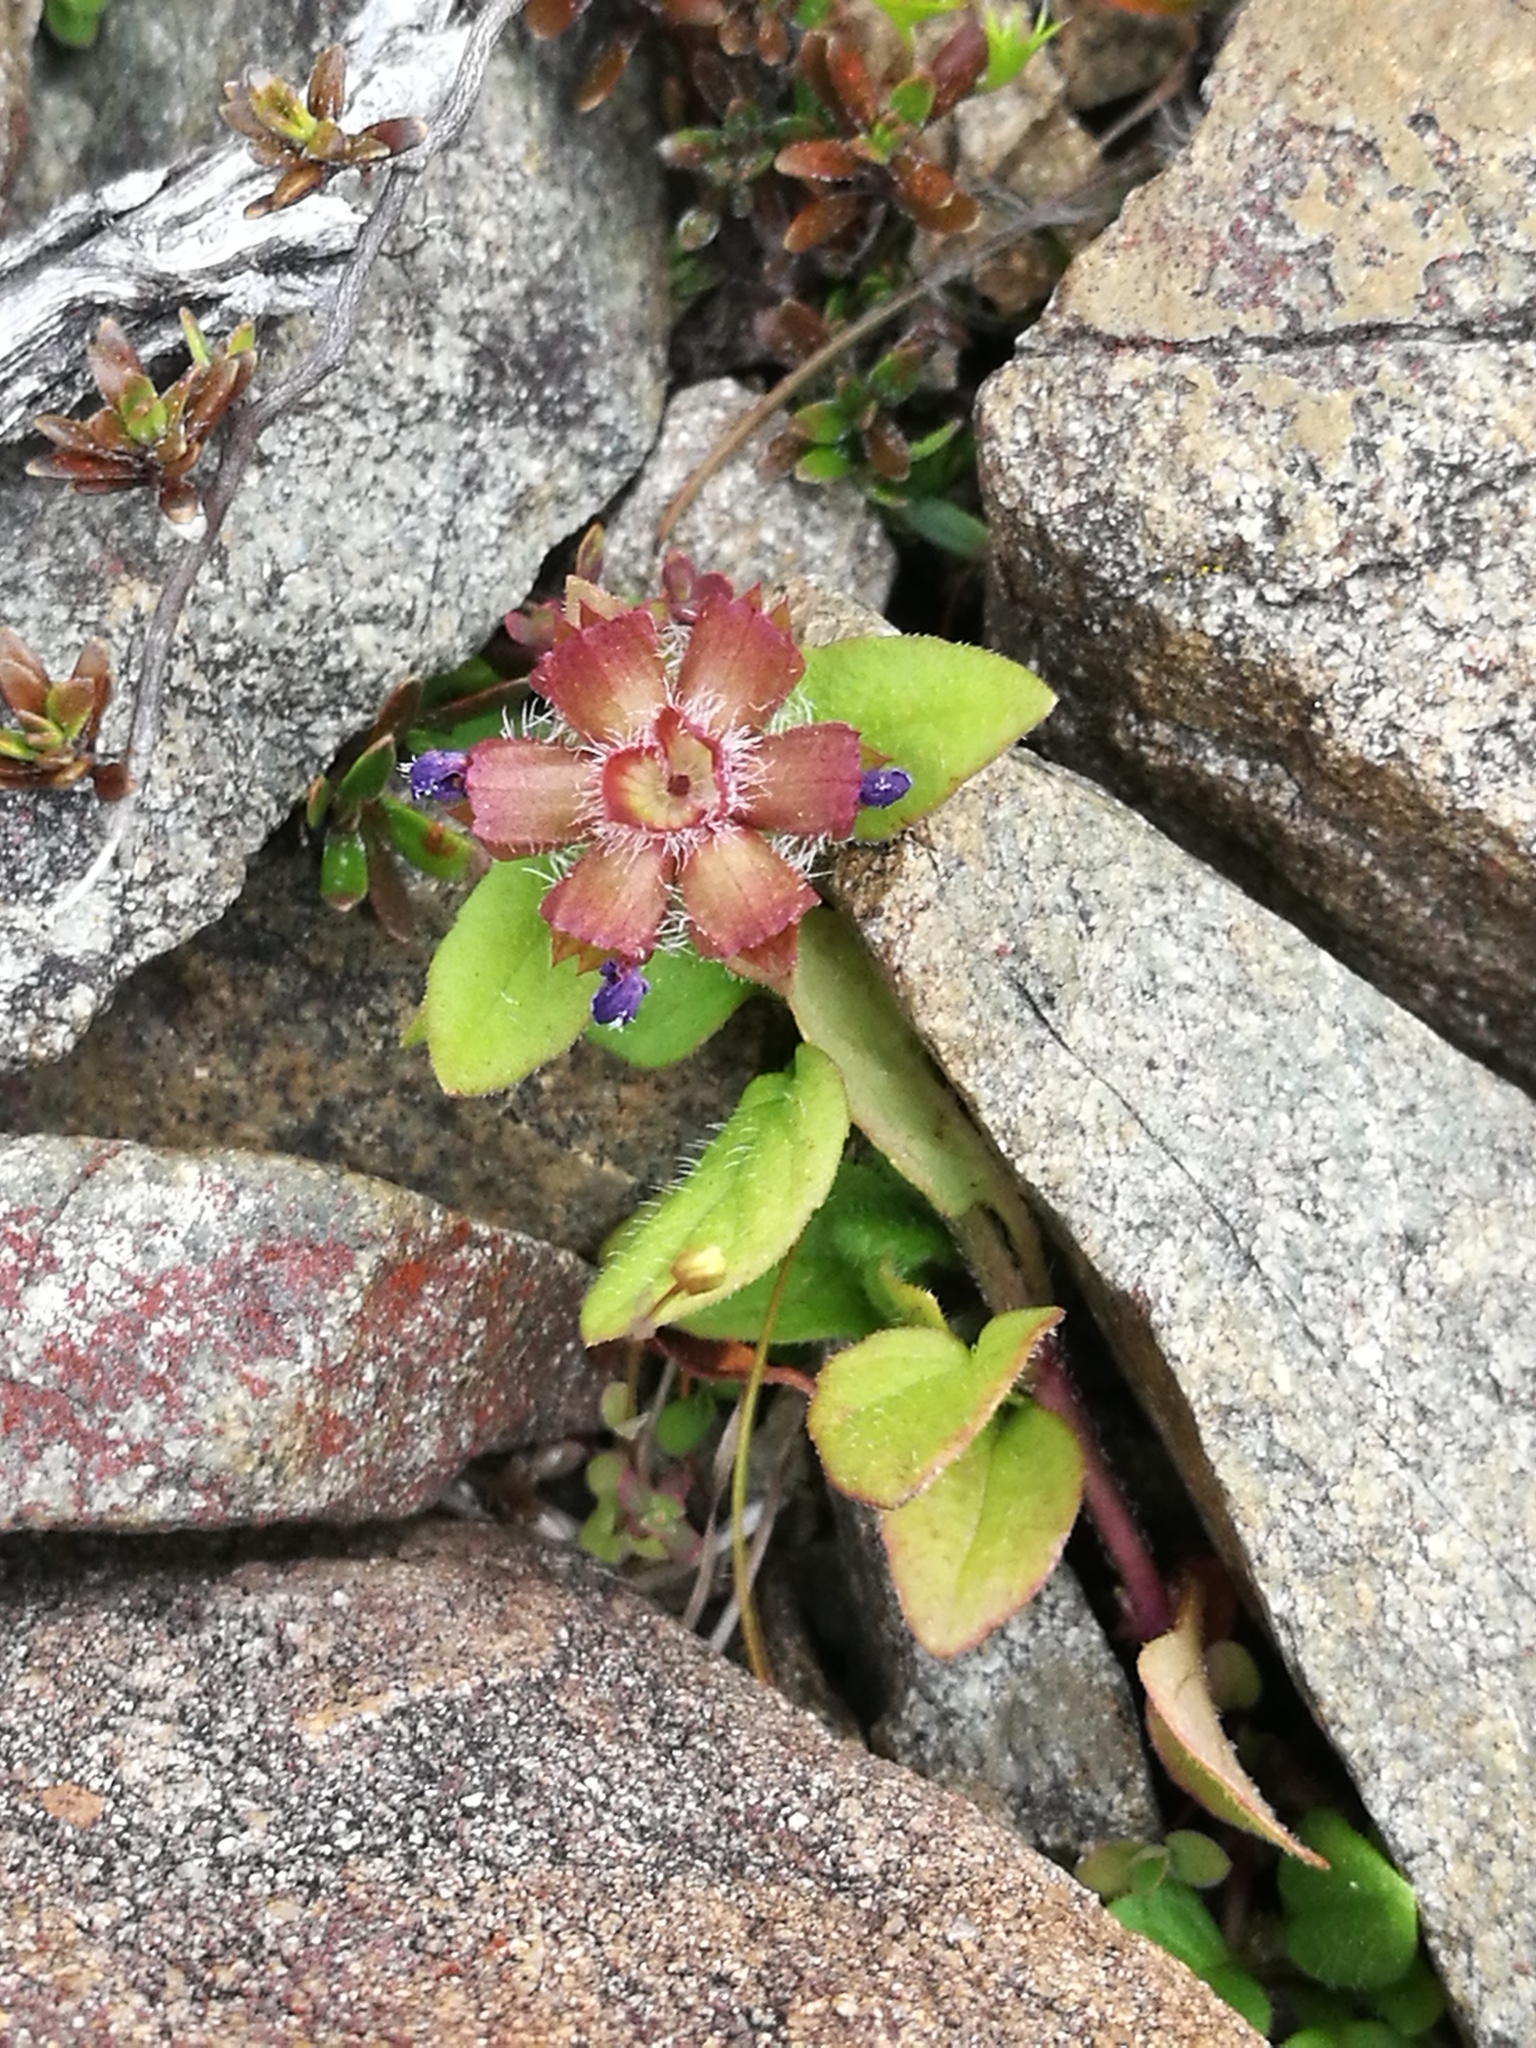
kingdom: Plantae
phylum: Tracheophyta
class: Magnoliopsida
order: Lamiales
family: Lamiaceae
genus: Prunella
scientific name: Prunella vulgaris
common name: Heal-all
